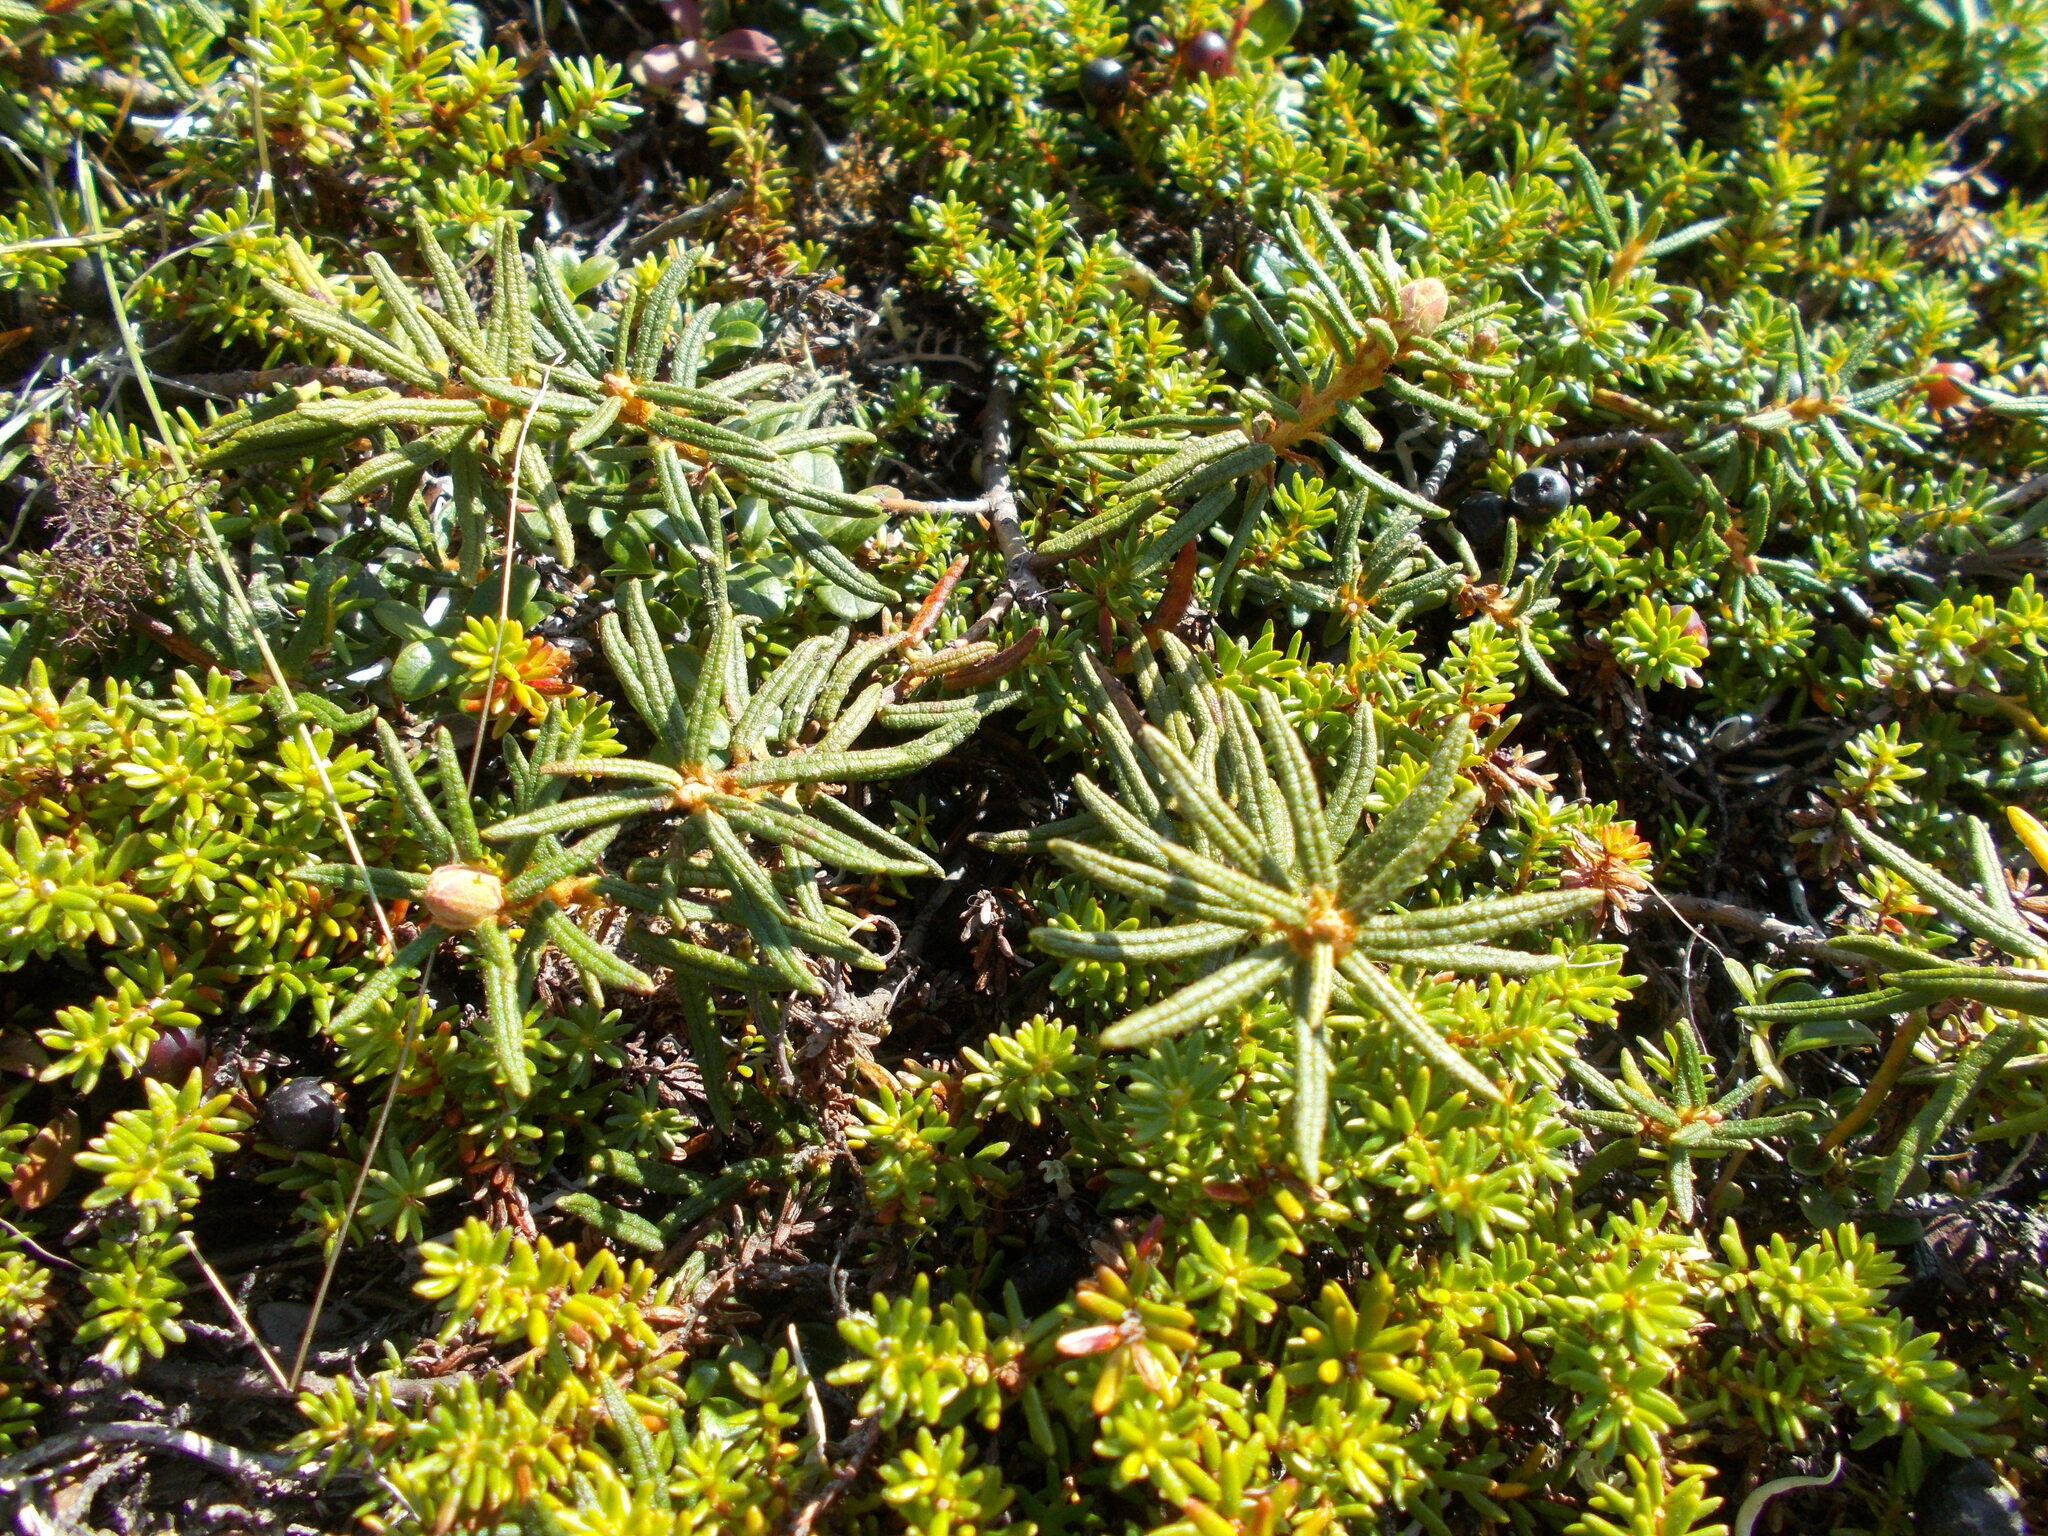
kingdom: Plantae
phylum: Tracheophyta
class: Magnoliopsida
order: Ericales
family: Ericaceae
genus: Rhododendron
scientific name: Rhododendron tomentosum
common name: Marsh labrador tea
